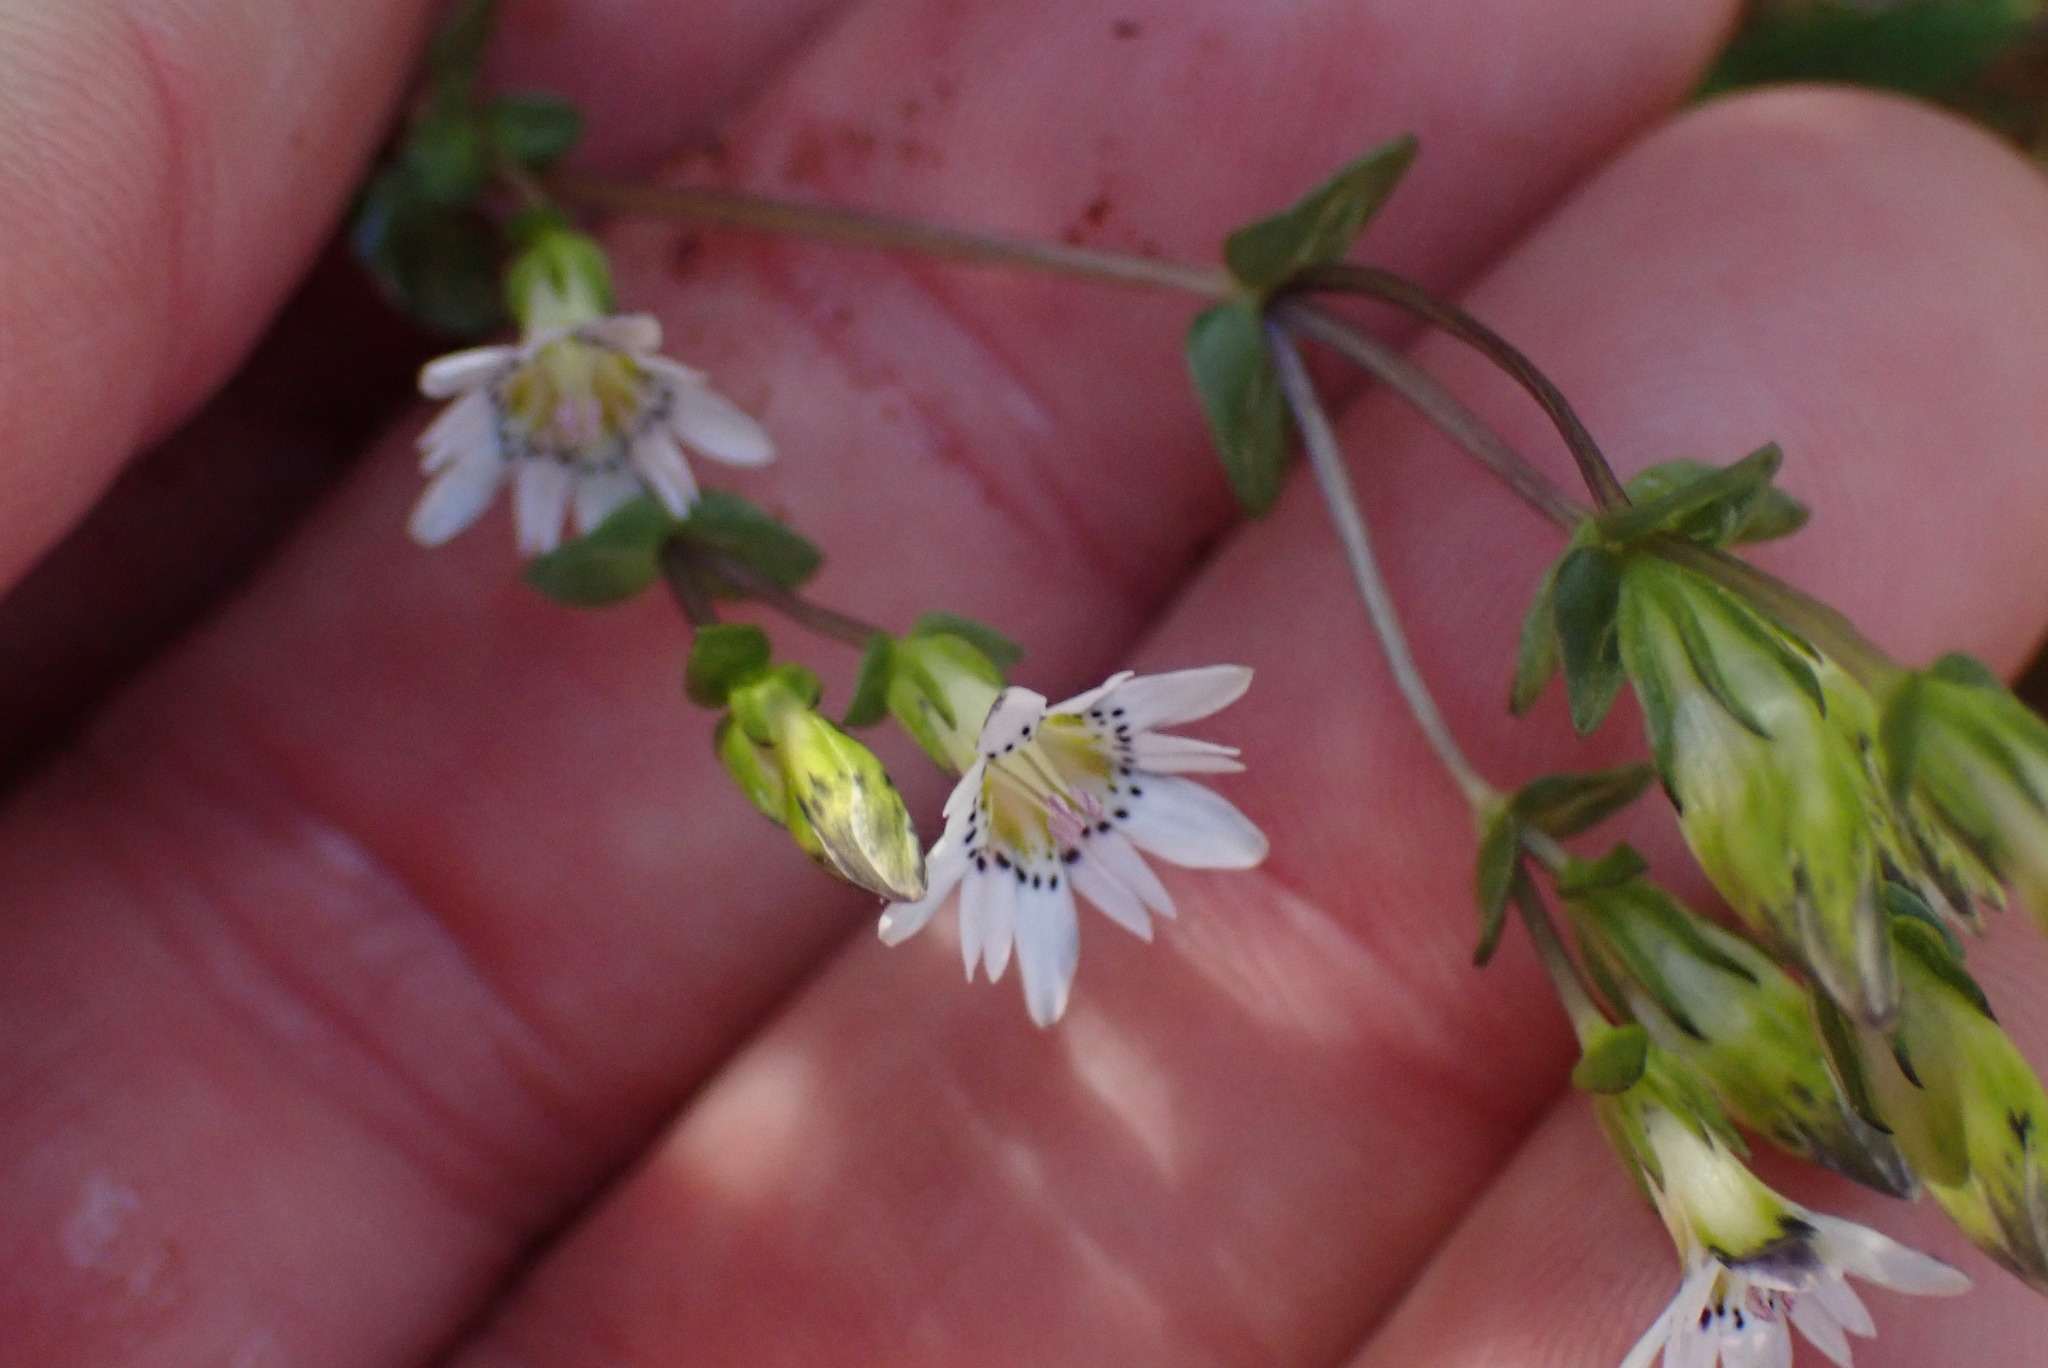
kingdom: Plantae
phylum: Tracheophyta
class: Magnoliopsida
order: Gentianales
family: Gentianaceae
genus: Gentiana
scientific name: Gentiana douglasiana
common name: Swamp gentian
